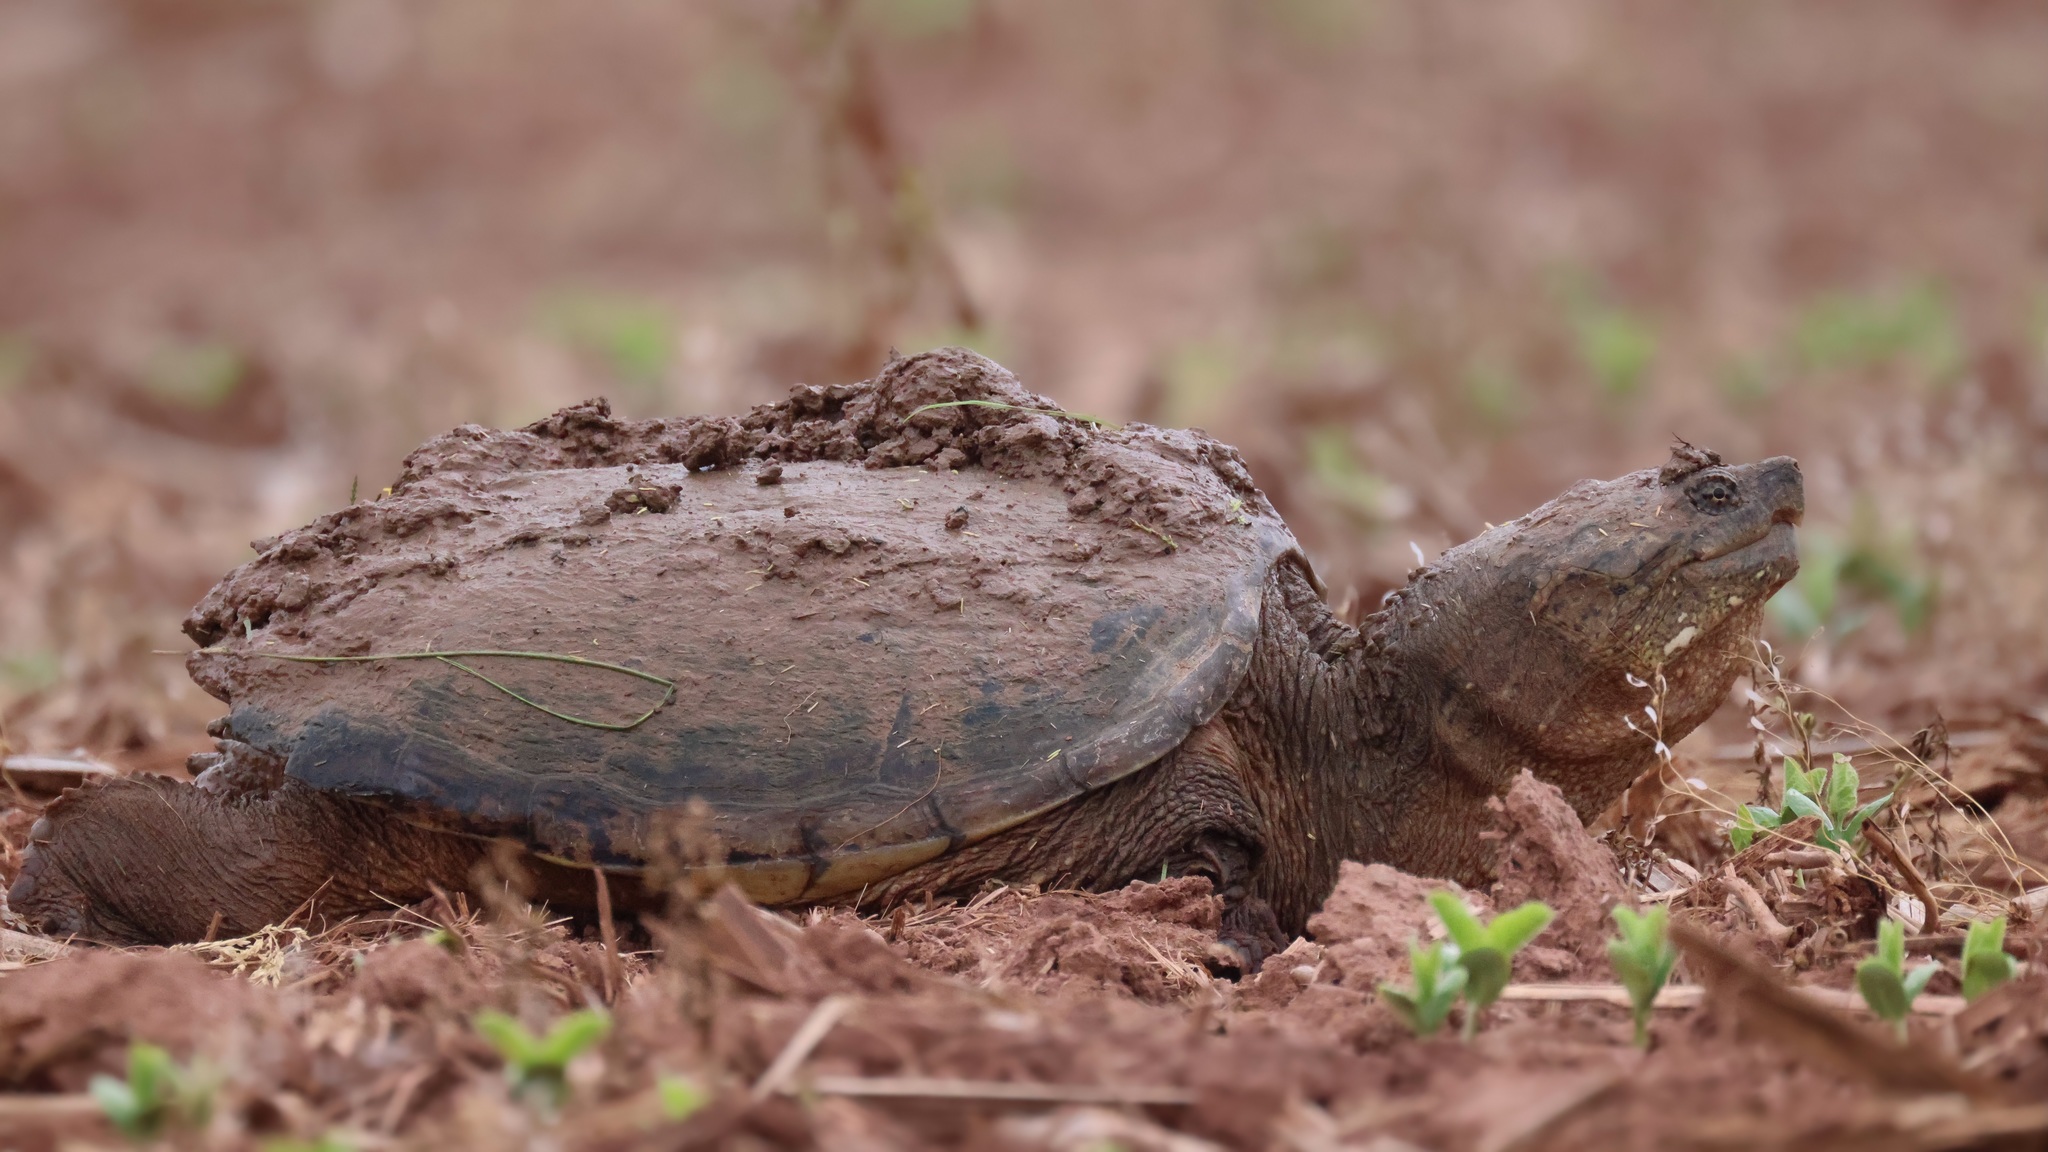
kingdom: Animalia
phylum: Chordata
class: Testudines
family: Chelydridae
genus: Chelydra
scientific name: Chelydra serpentina
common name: Common snapping turtle
